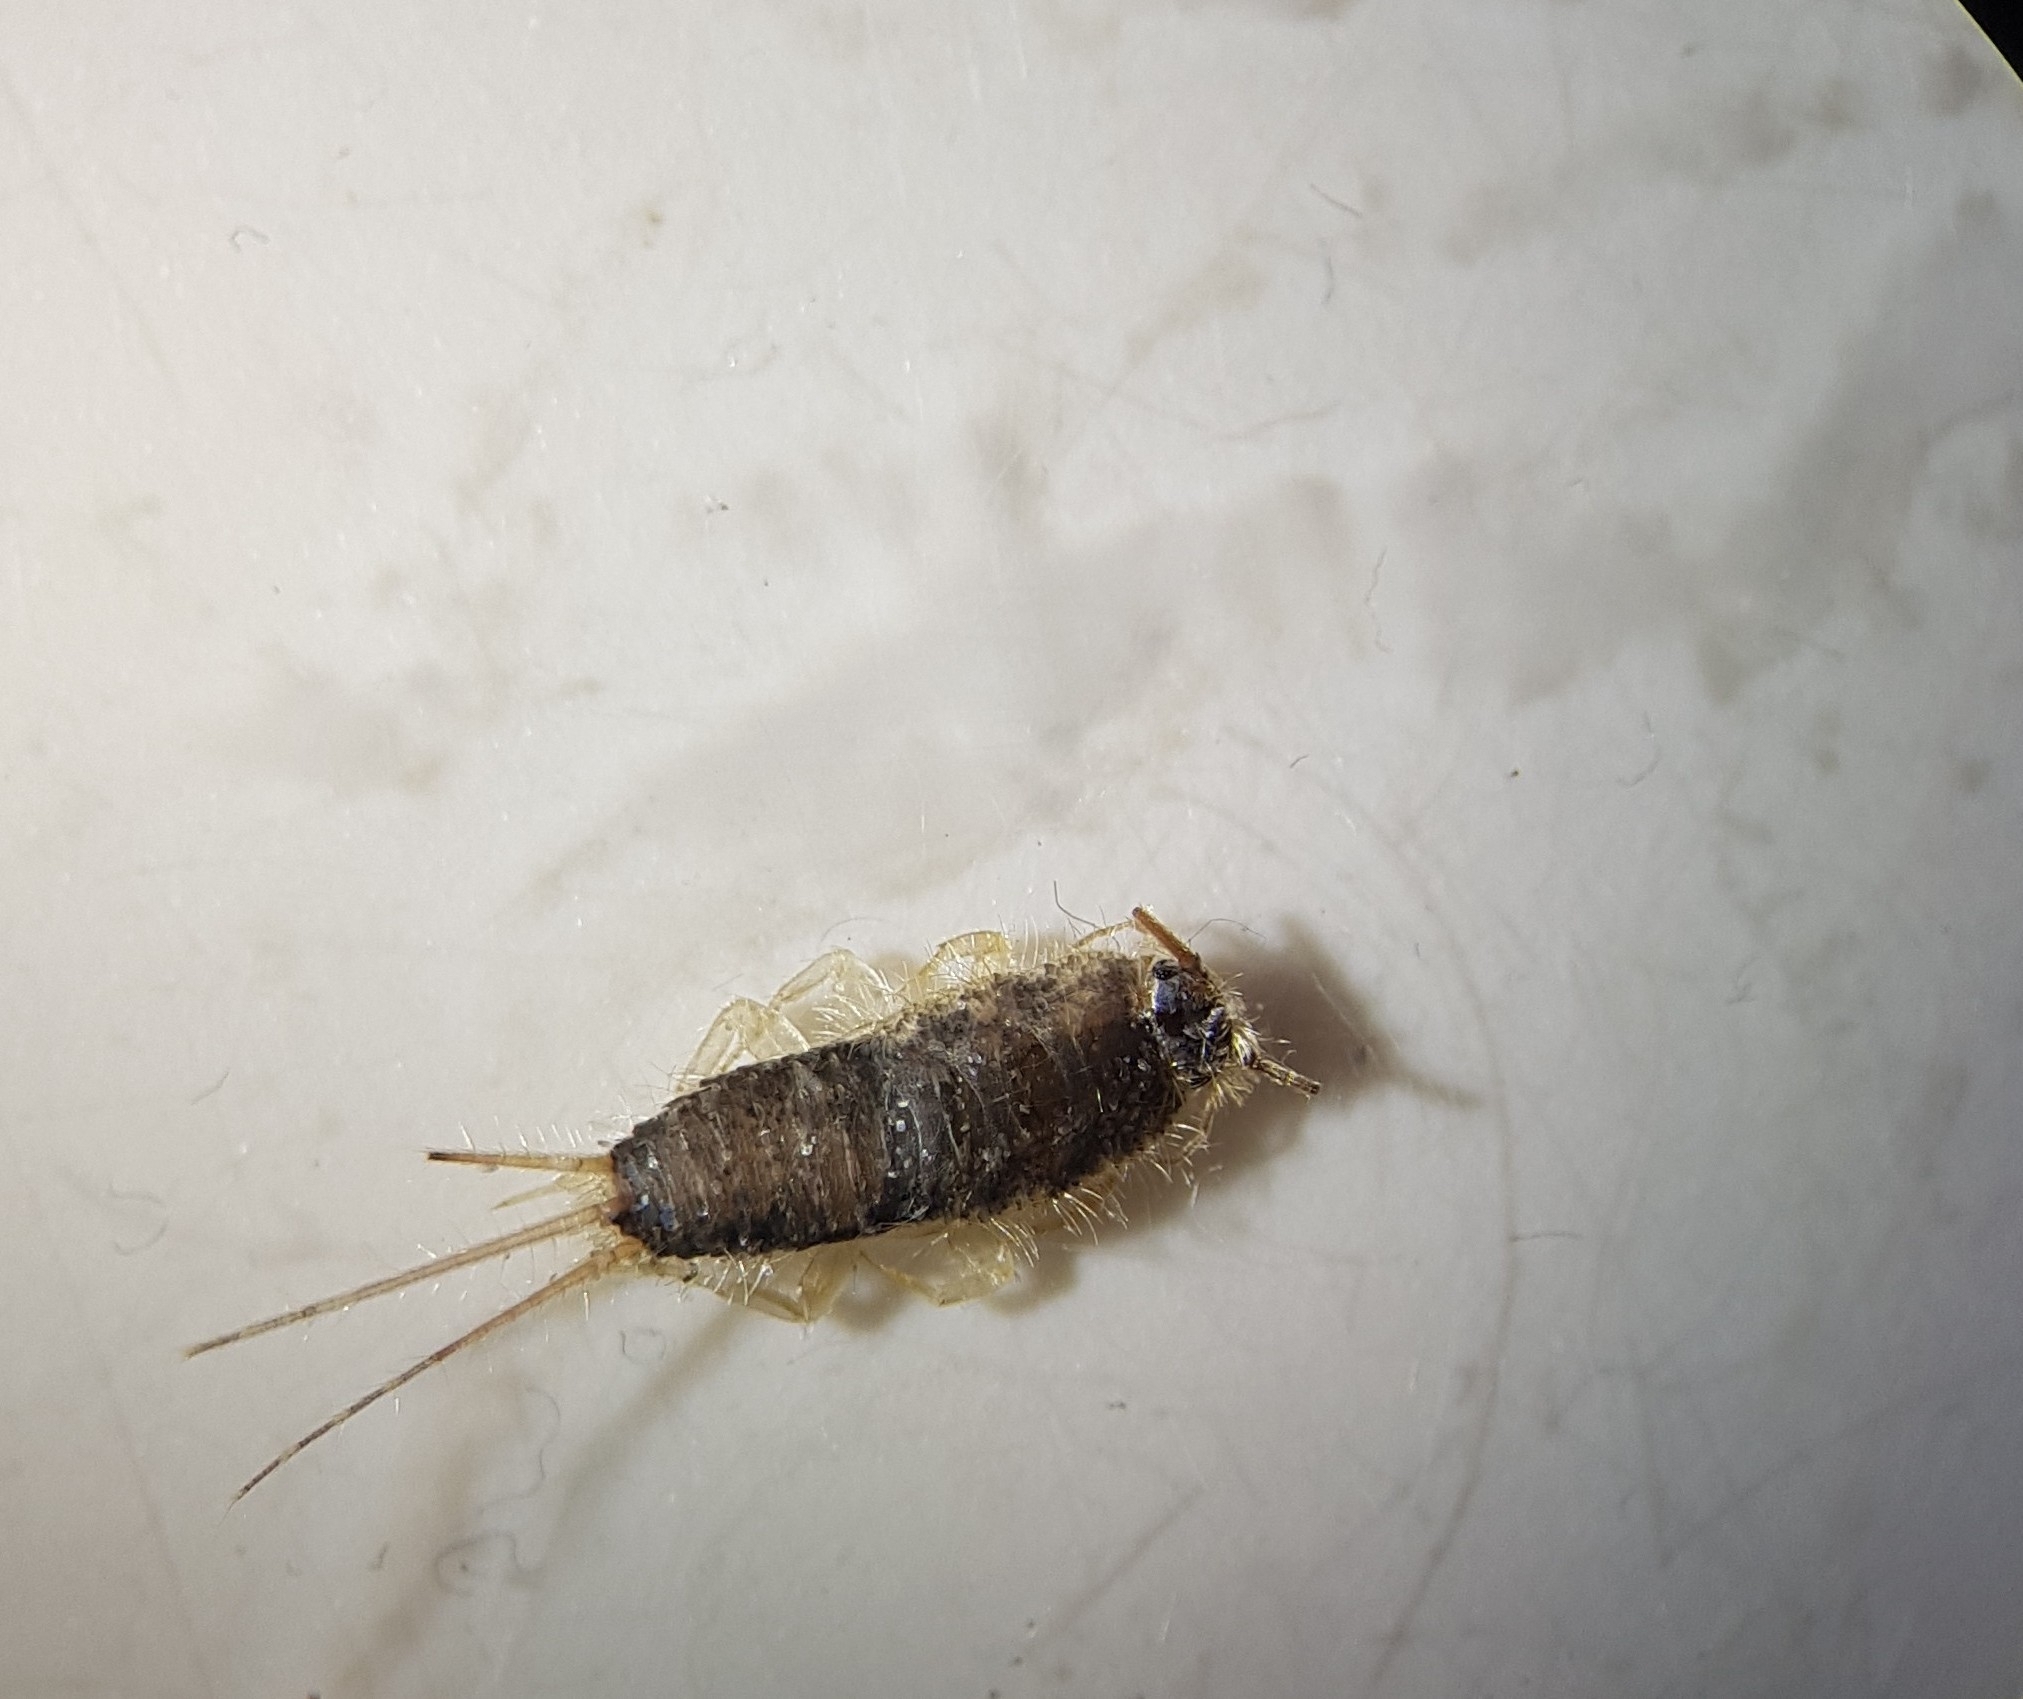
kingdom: Animalia
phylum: Arthropoda
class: Insecta
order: Zygentoma
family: Lepismatidae
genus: Ctenolepisma
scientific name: Ctenolepisma longicaudatum
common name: Silverfish
